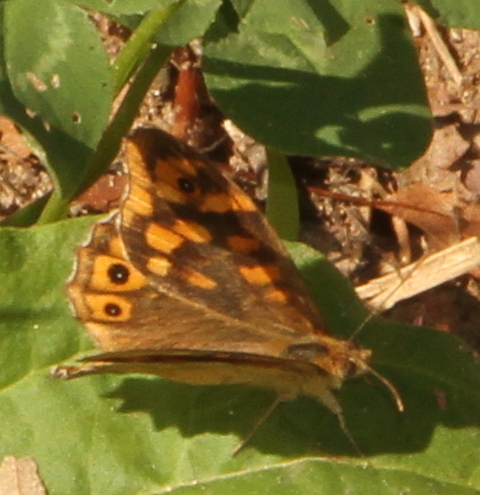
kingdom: Animalia
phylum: Arthropoda
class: Insecta
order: Lepidoptera
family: Nymphalidae
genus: Pararge
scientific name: Pararge aegeria
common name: Speckled wood
